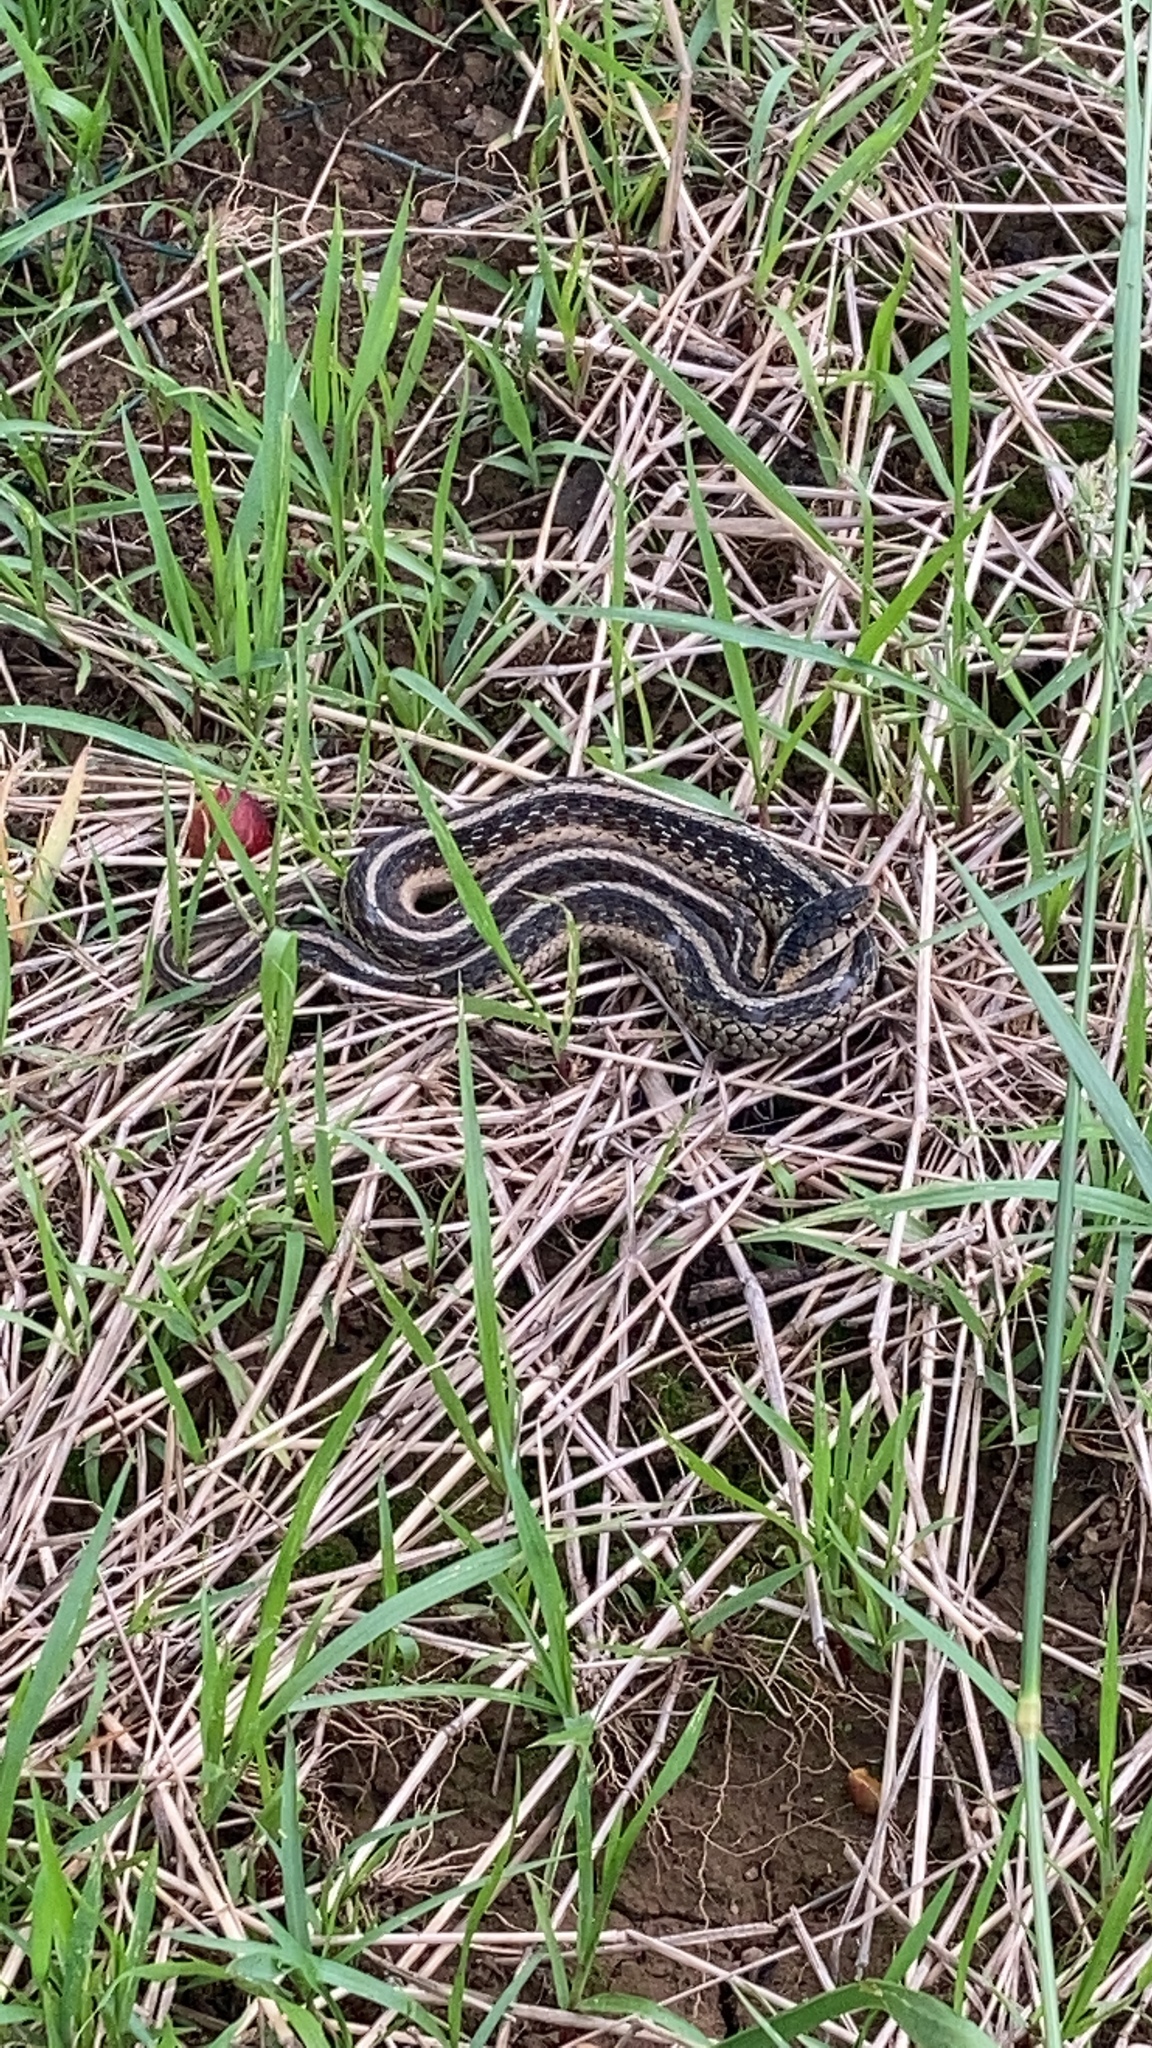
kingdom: Animalia
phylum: Chordata
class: Squamata
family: Colubridae
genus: Thamnophis
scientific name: Thamnophis sirtalis
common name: Common garter snake
